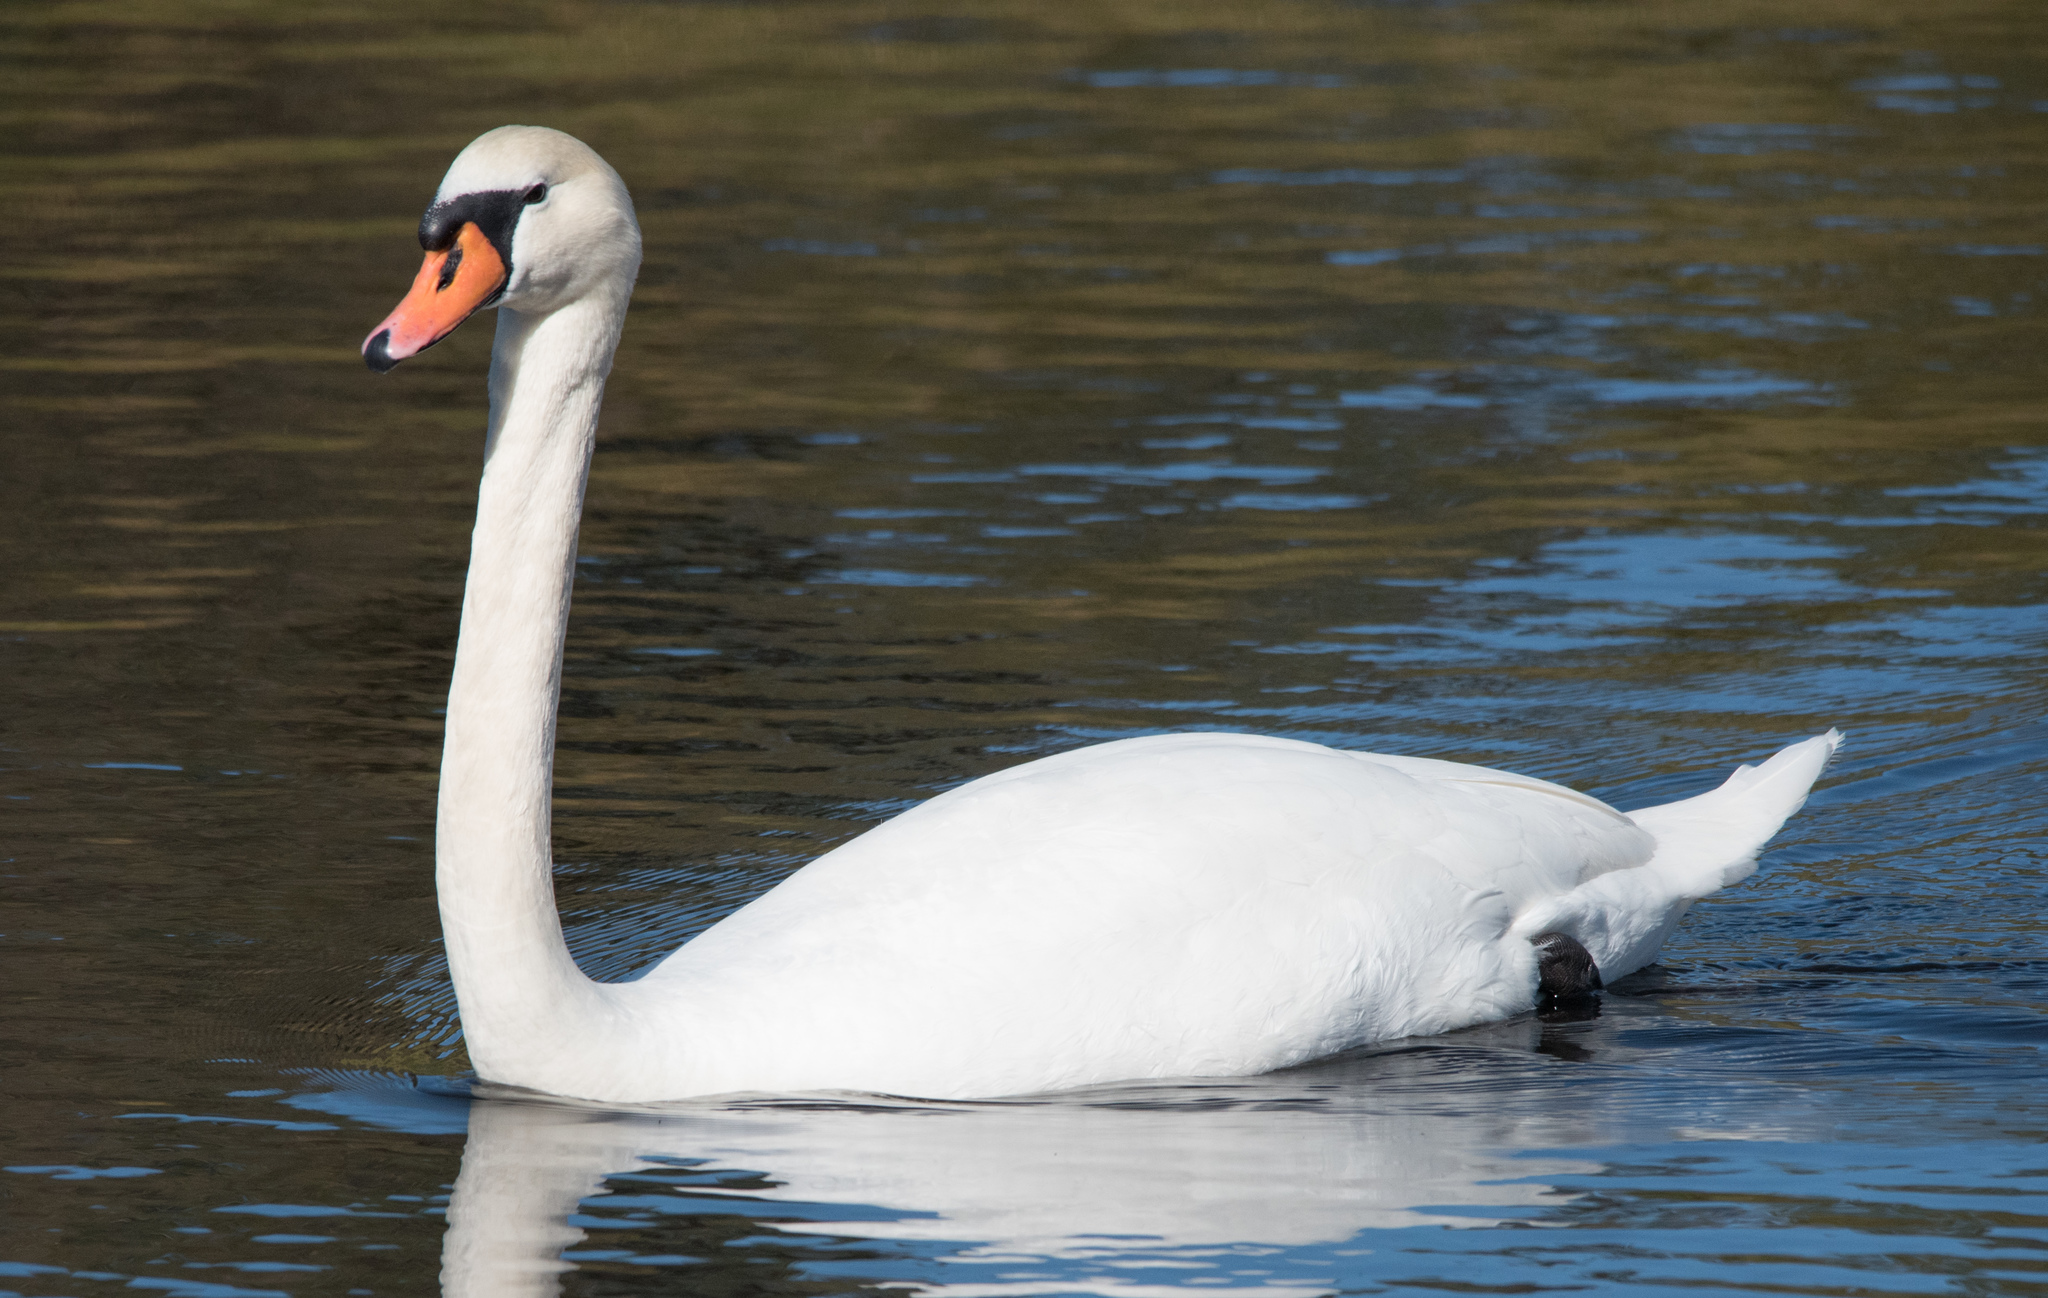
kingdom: Animalia
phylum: Chordata
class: Aves
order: Anseriformes
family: Anatidae
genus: Cygnus
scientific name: Cygnus olor
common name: Mute swan
